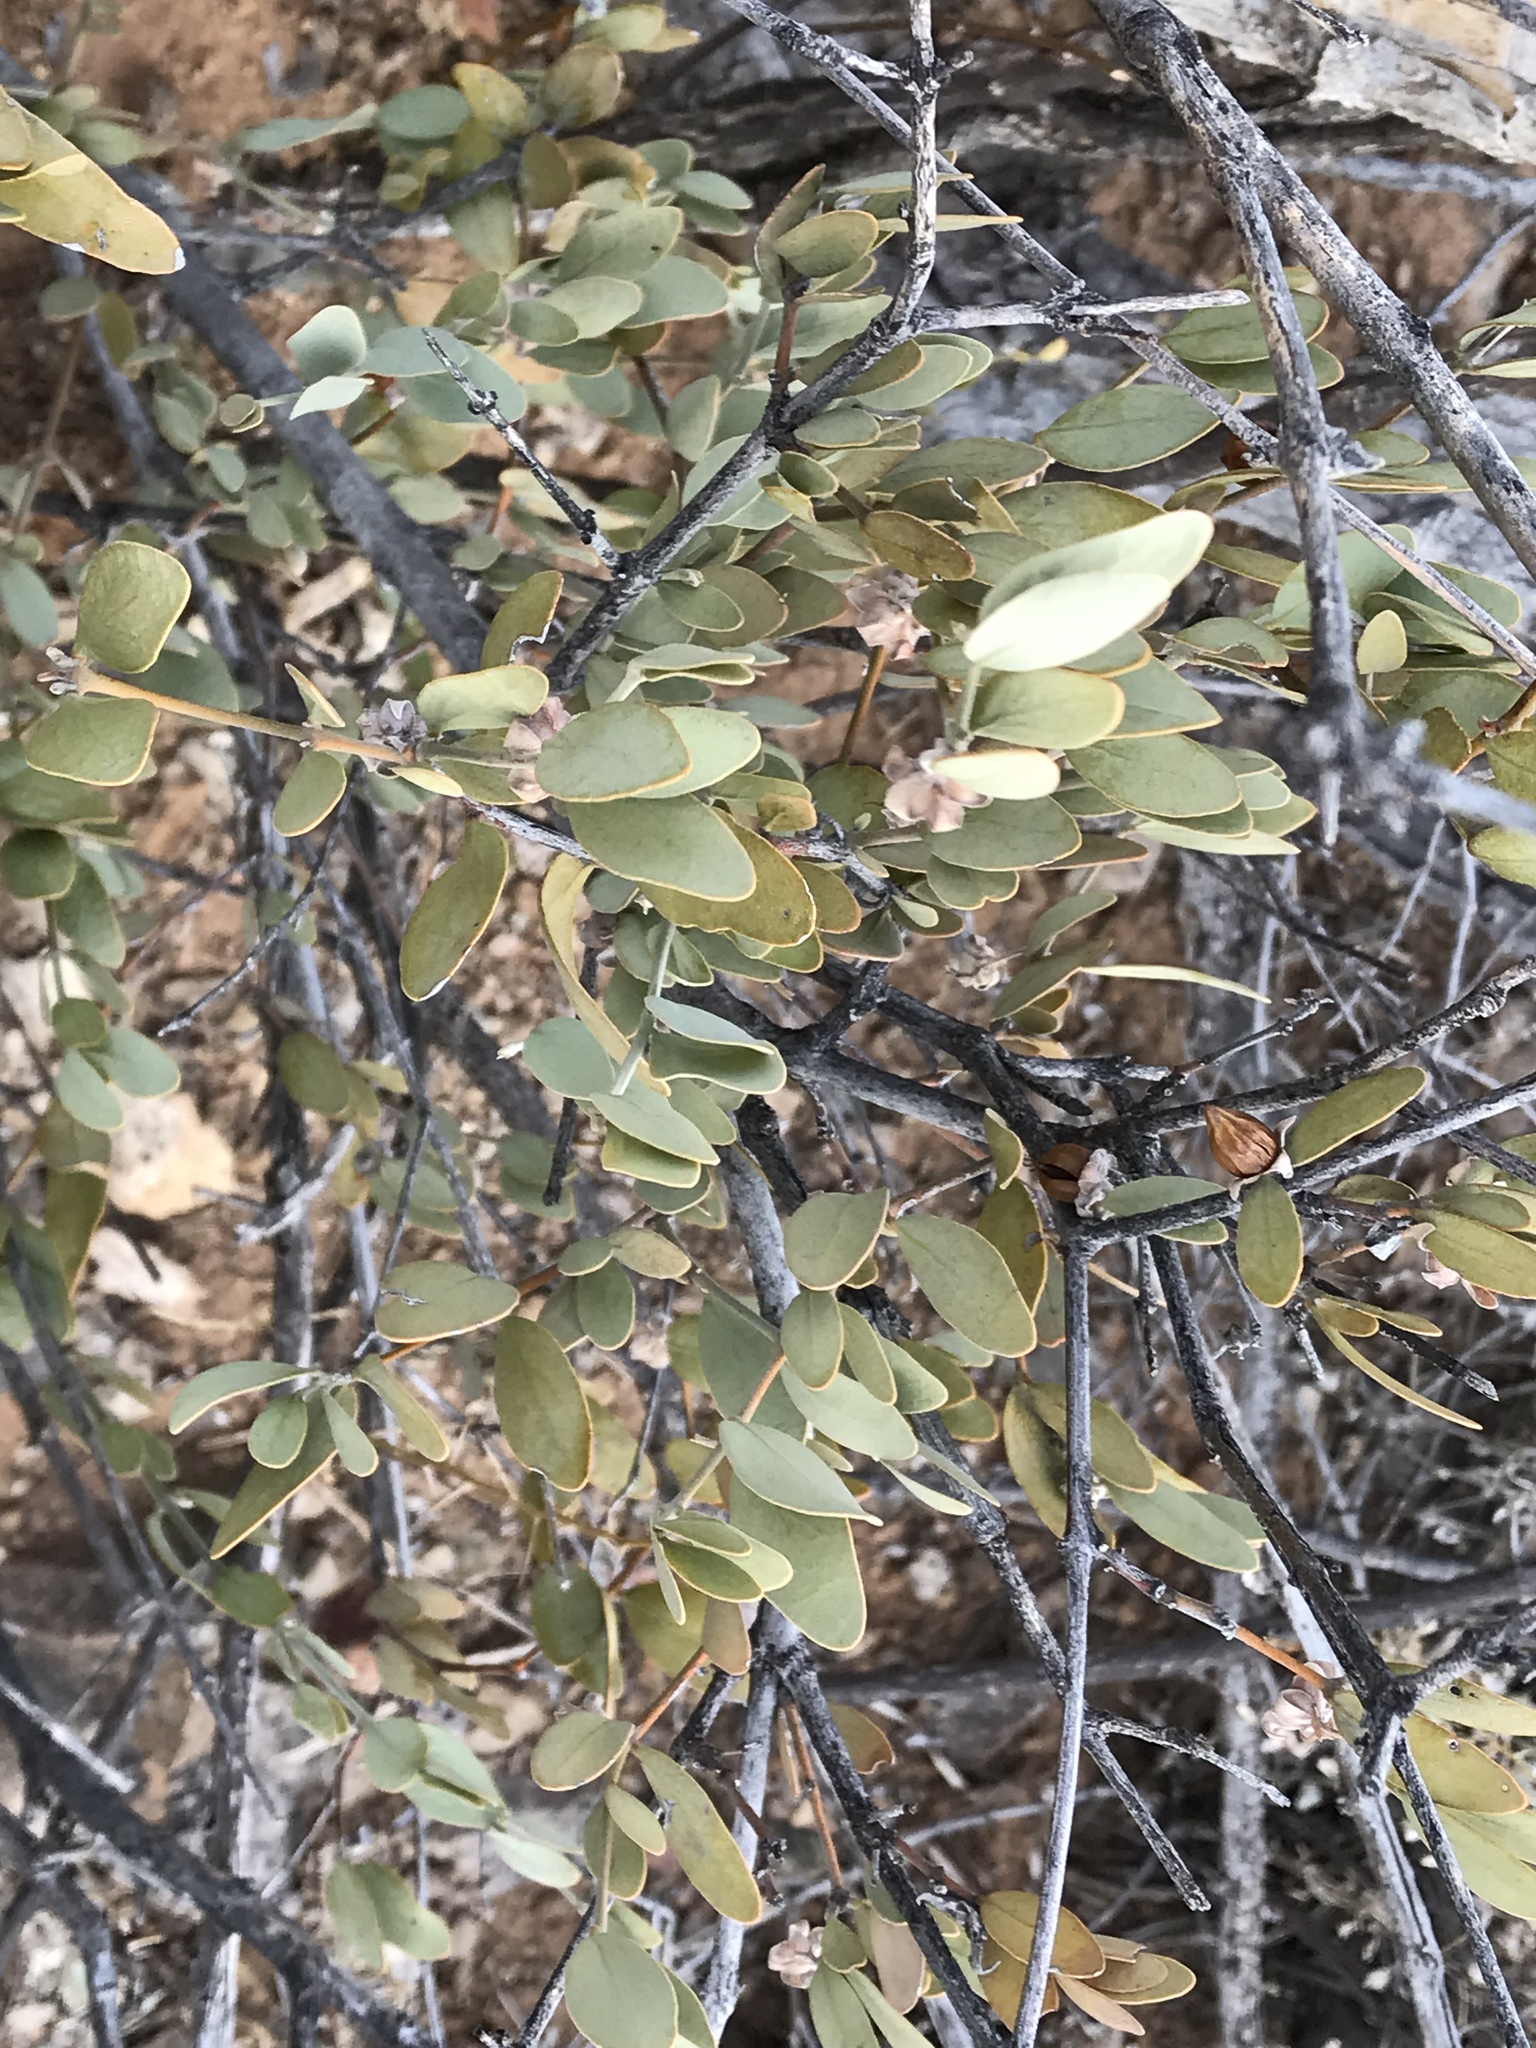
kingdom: Plantae
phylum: Tracheophyta
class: Magnoliopsida
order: Caryophyllales
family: Simmondsiaceae
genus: Simmondsia
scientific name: Simmondsia chinensis
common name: Jojoba
